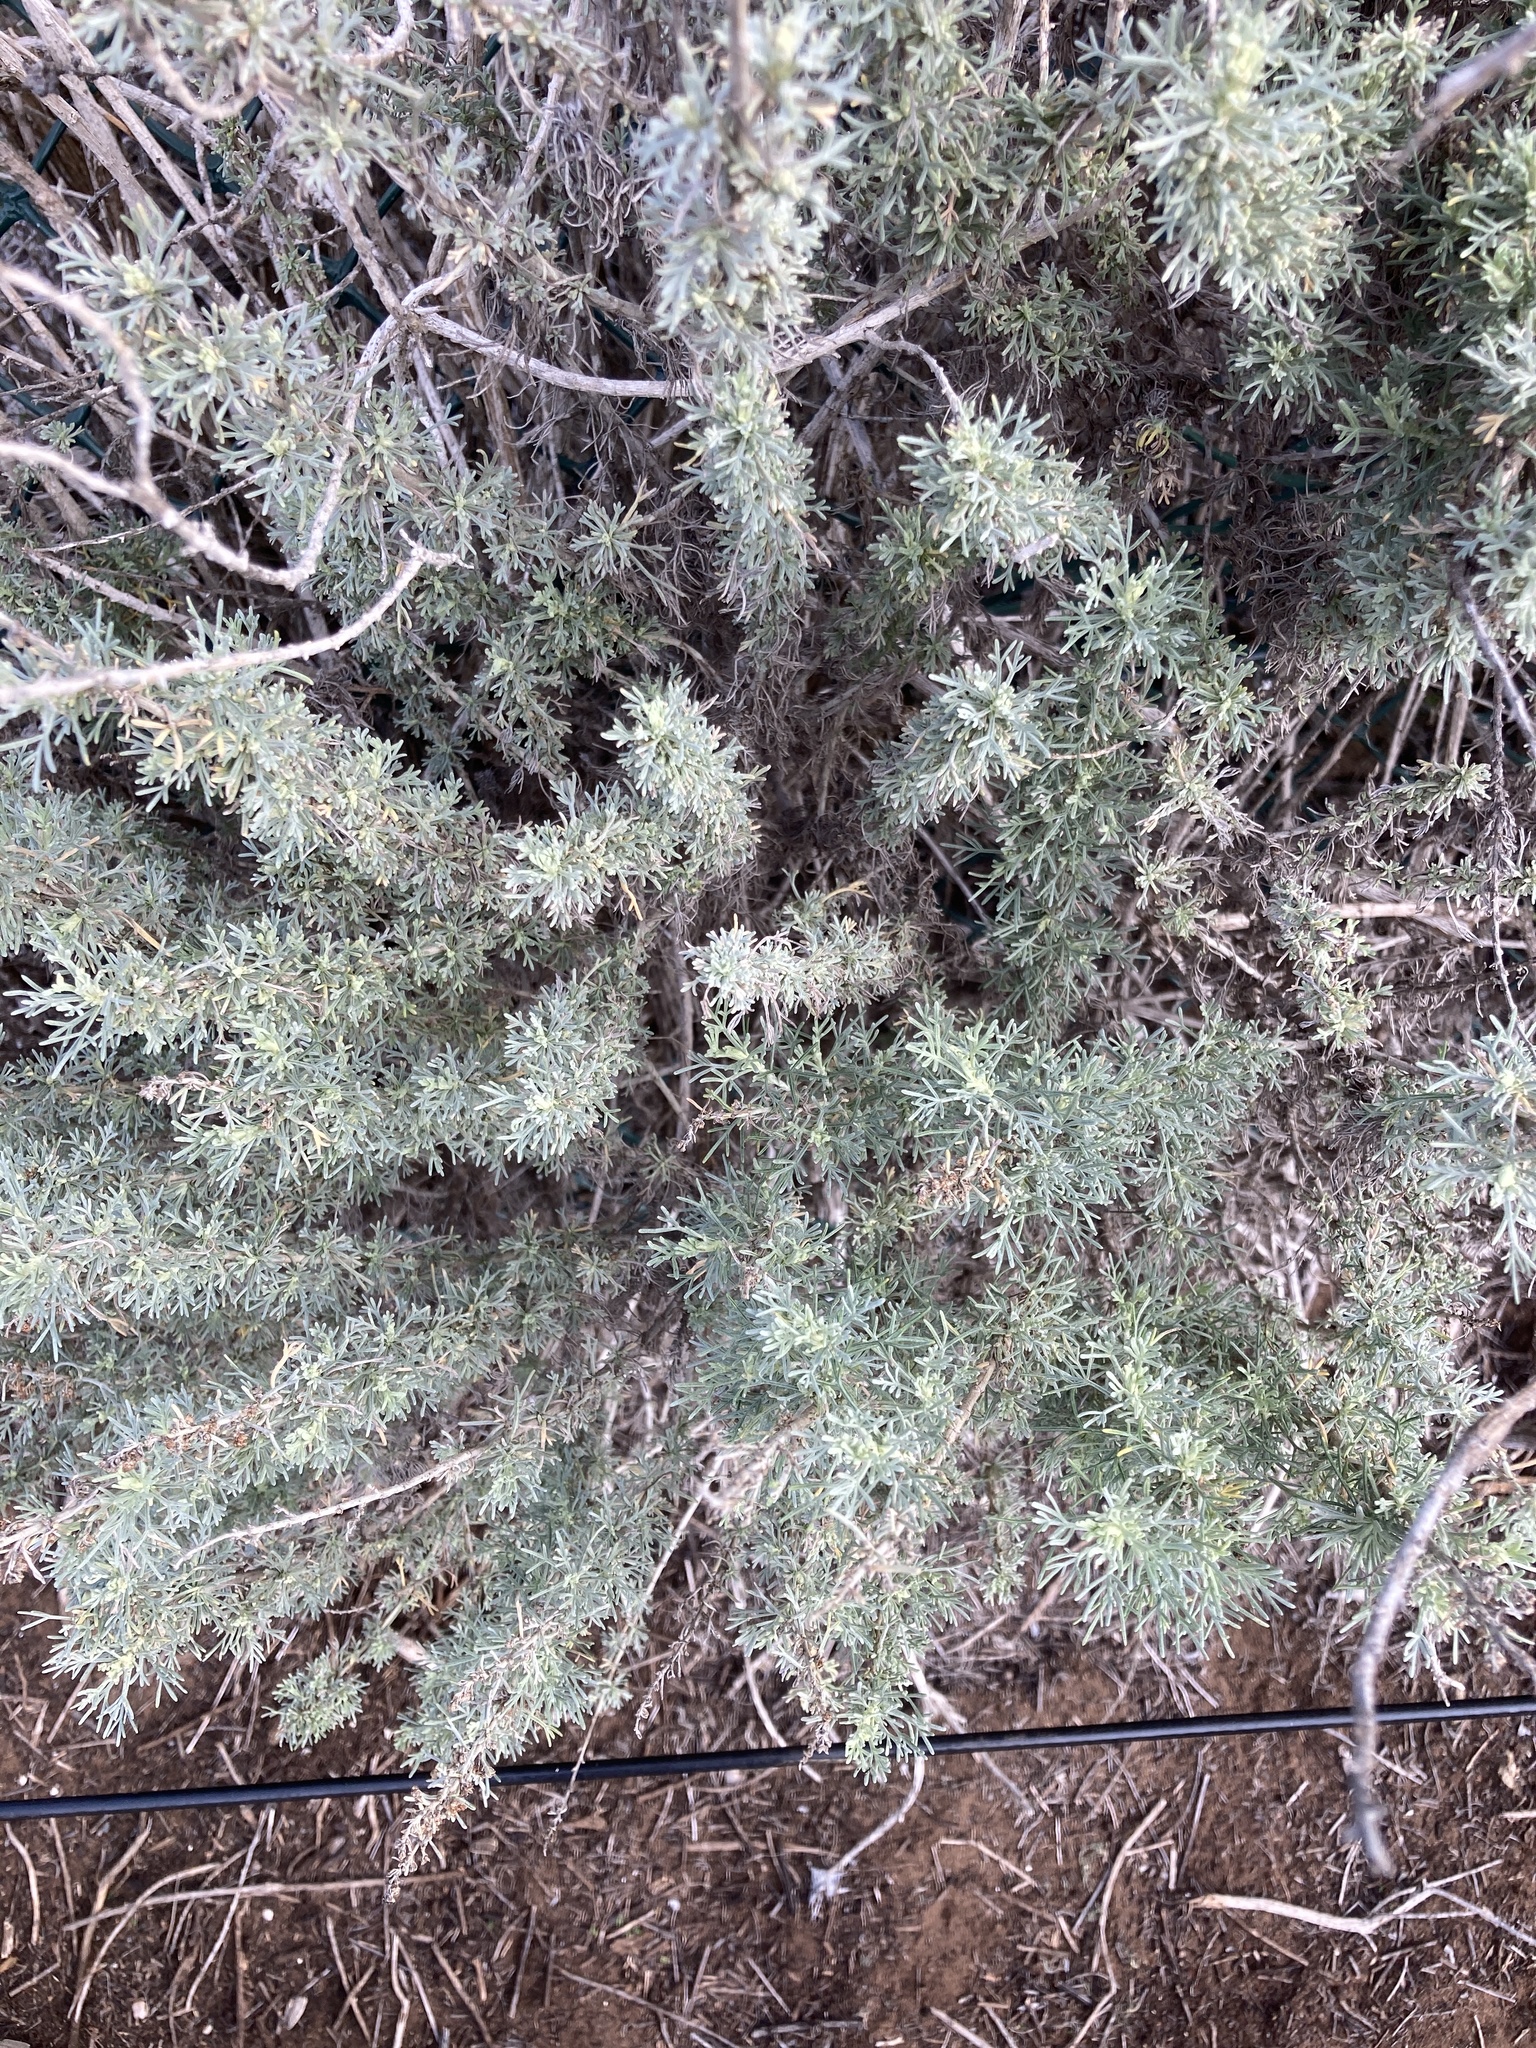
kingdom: Plantae
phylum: Tracheophyta
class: Magnoliopsida
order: Asterales
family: Asteraceae
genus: Artemisia
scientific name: Artemisia californica
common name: California sagebrush
